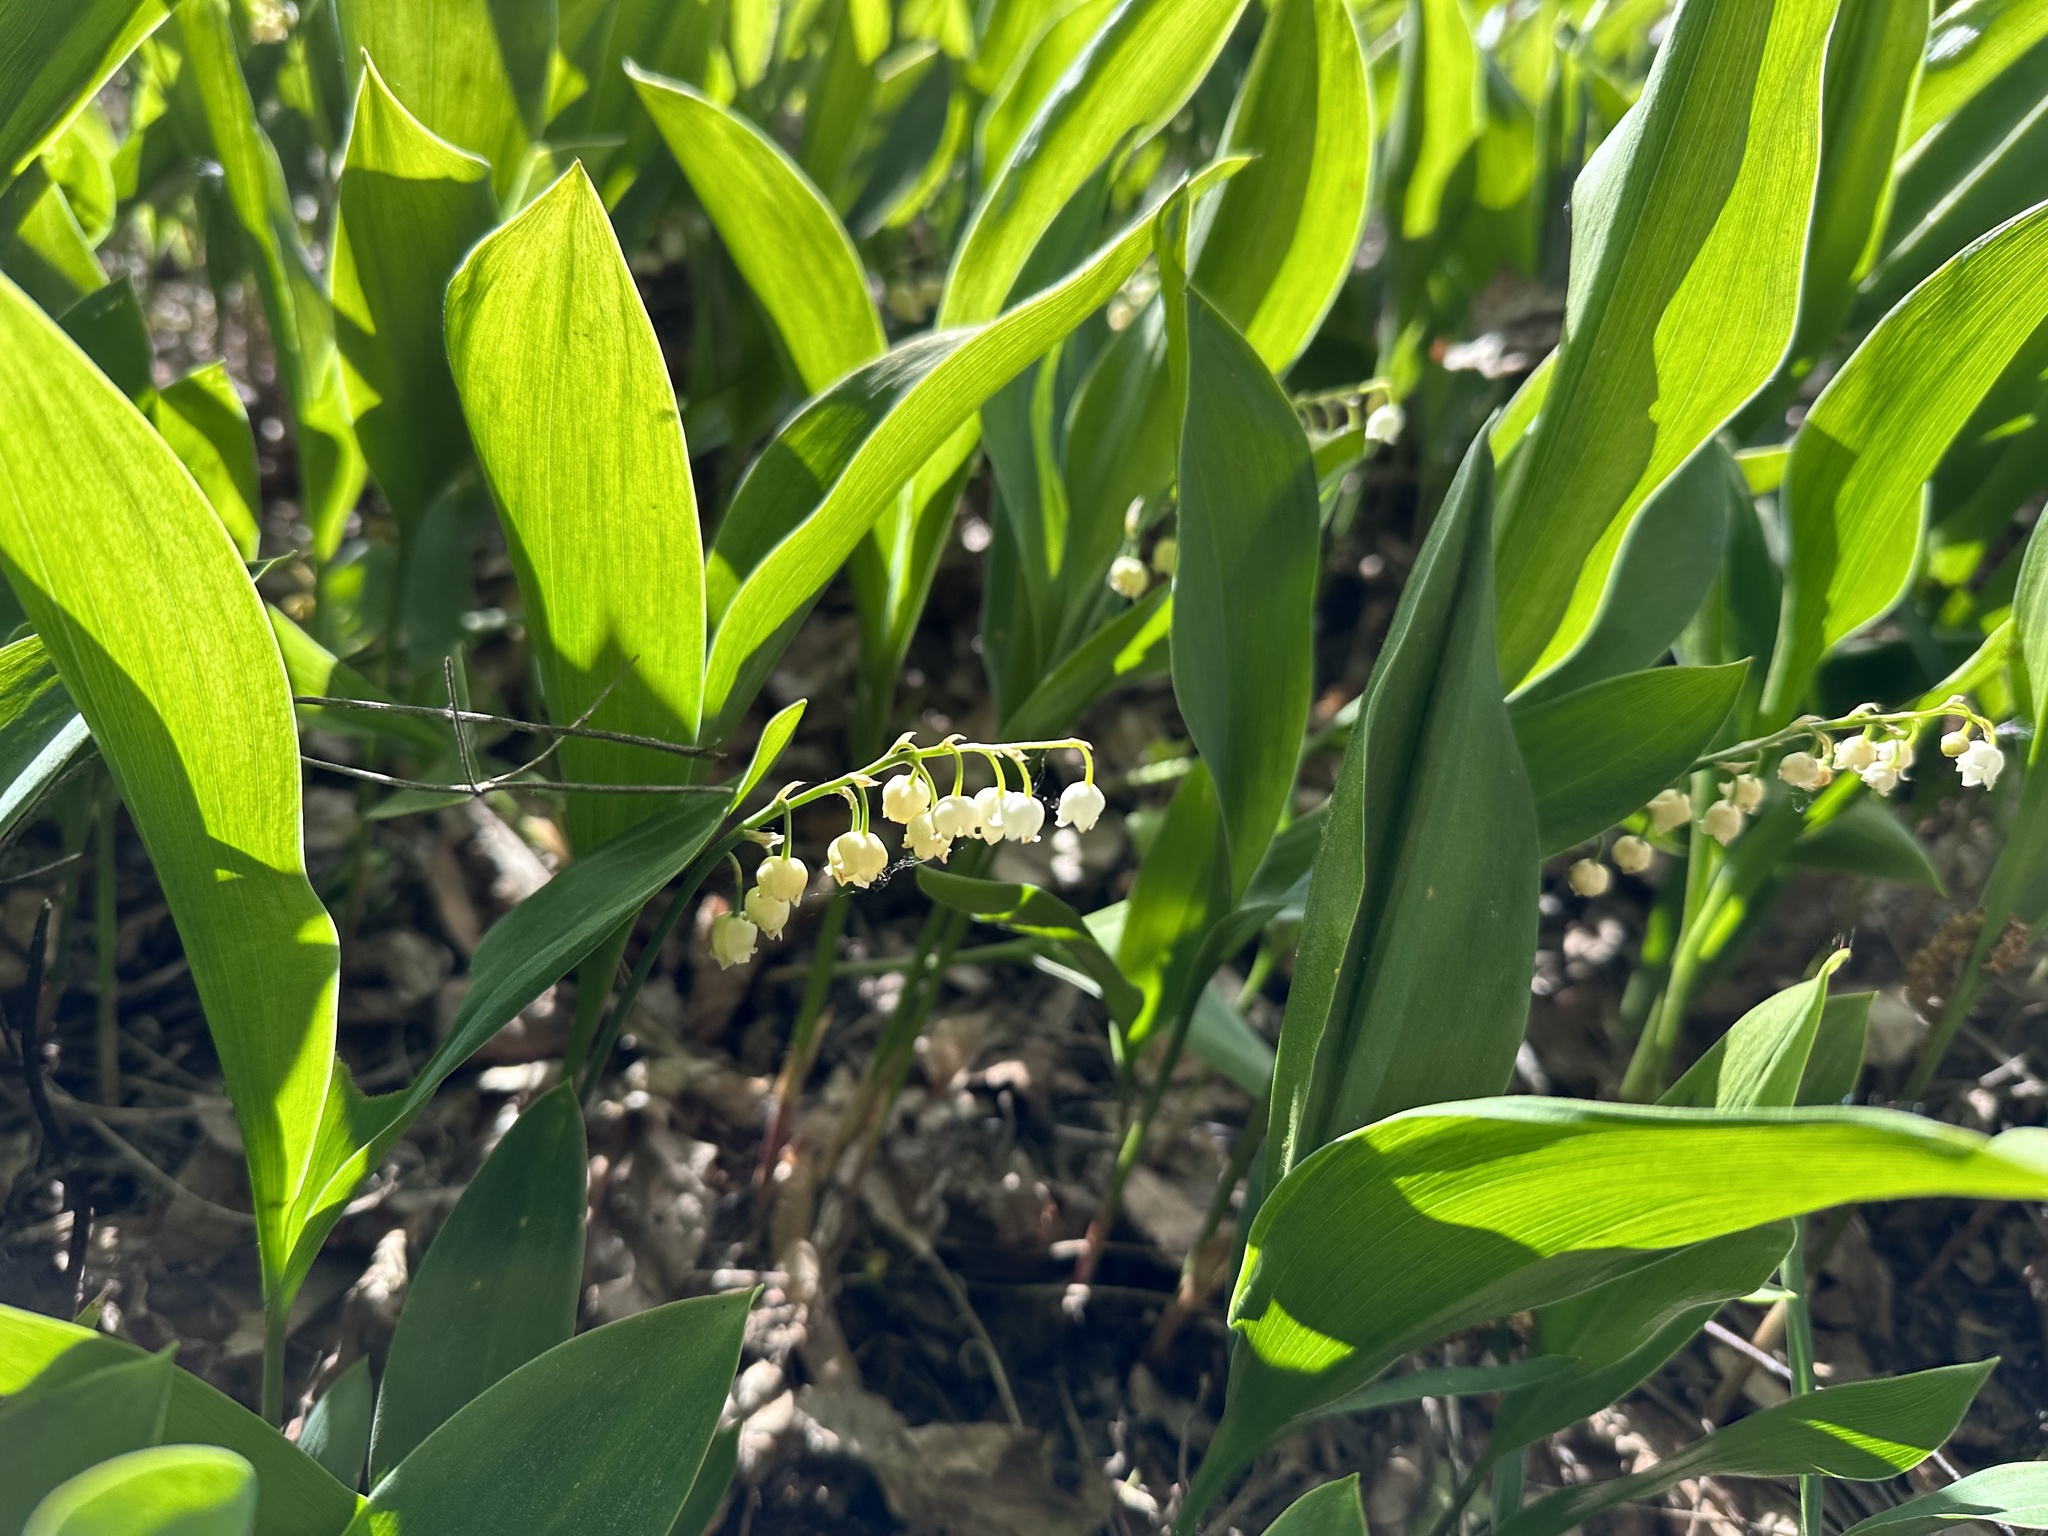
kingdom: Plantae
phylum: Tracheophyta
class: Liliopsida
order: Asparagales
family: Asparagaceae
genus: Convallaria
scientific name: Convallaria majalis
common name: Lily-of-the-valley
